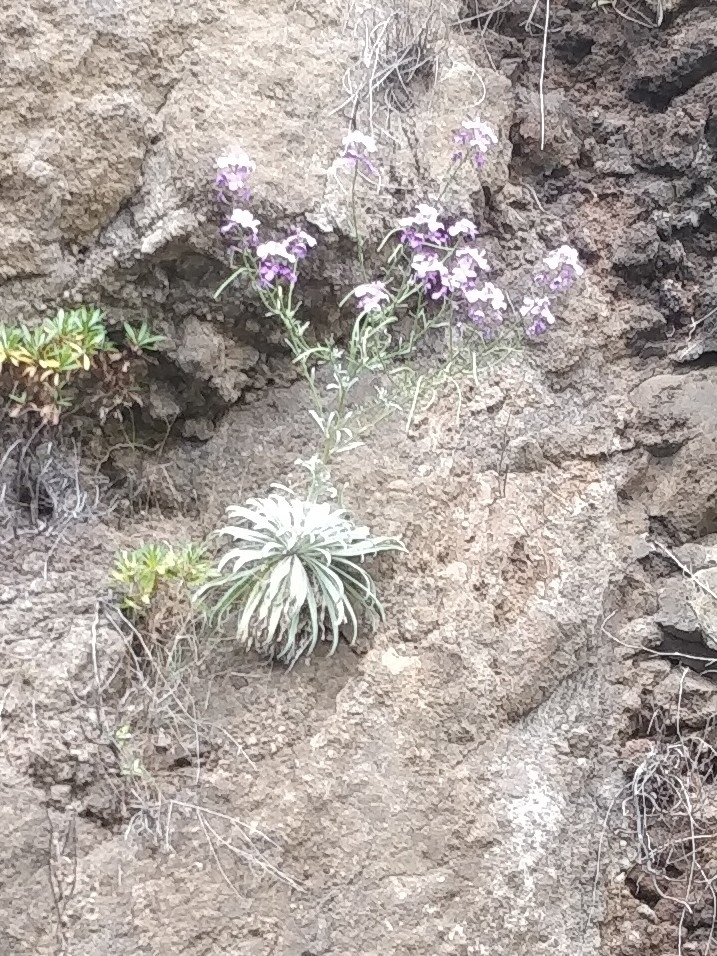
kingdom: Plantae
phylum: Tracheophyta
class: Magnoliopsida
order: Brassicales
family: Brassicaceae
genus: Matthiola
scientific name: Matthiola maderensis
